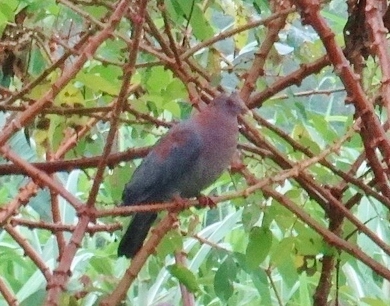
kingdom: Animalia
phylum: Chordata
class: Aves
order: Columbiformes
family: Columbidae
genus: Patagioenas
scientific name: Patagioenas flavirostris
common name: Red-billed pigeon
